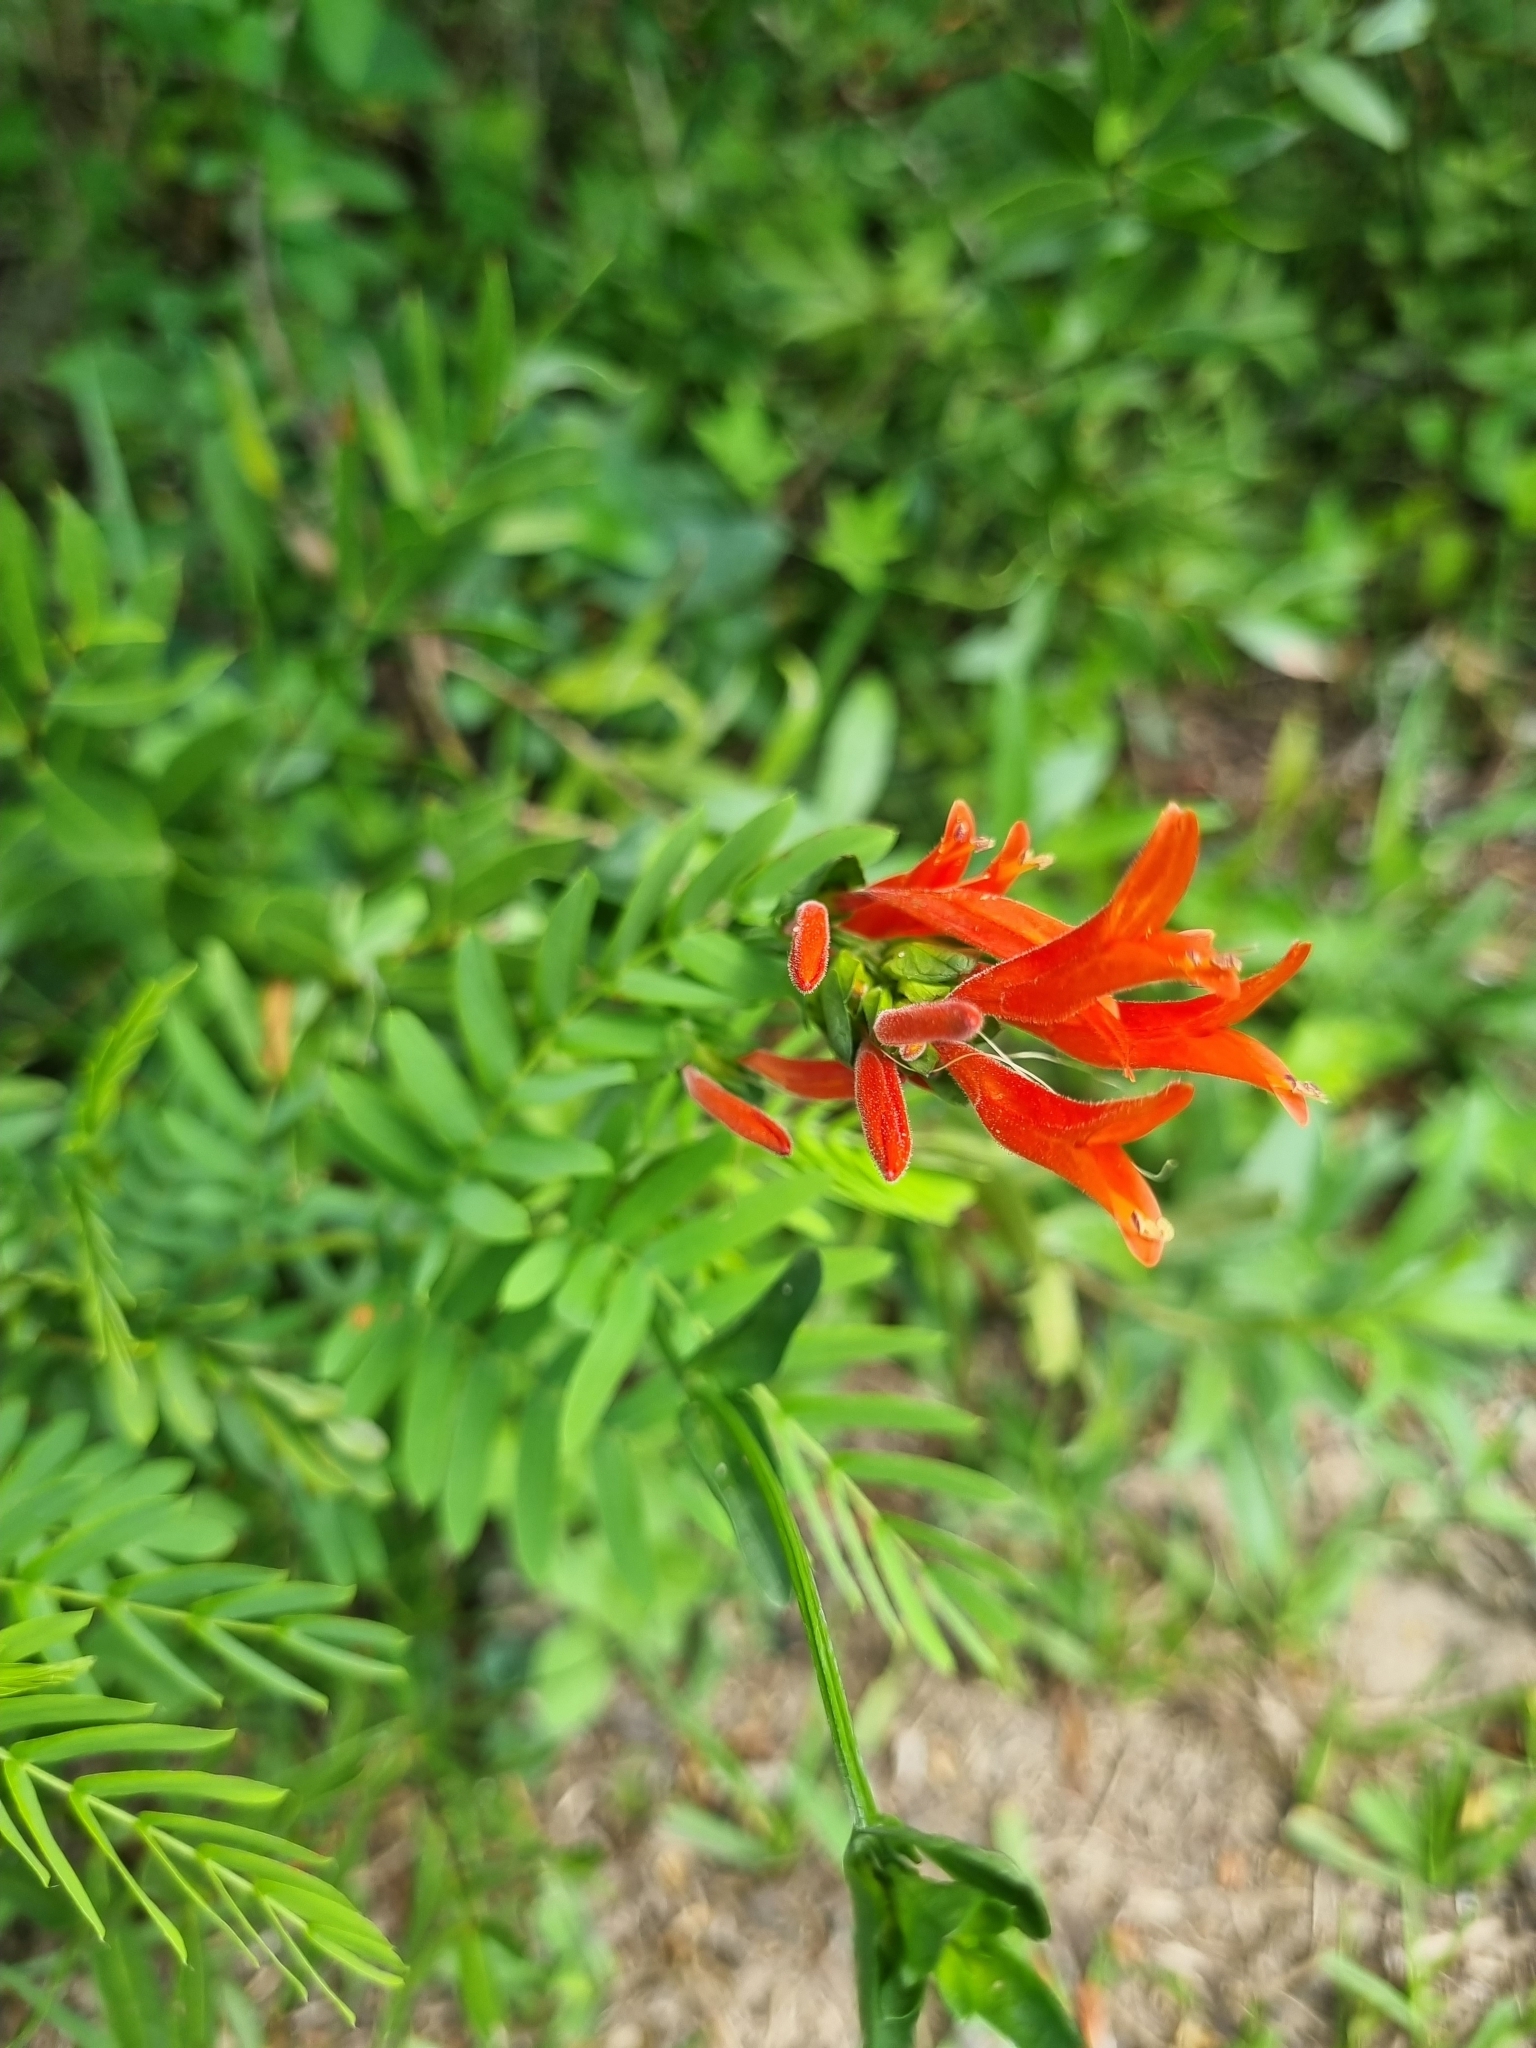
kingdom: Plantae
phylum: Tracheophyta
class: Magnoliopsida
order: Lamiales
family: Acanthaceae
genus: Dicliptera
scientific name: Dicliptera squarrosa
